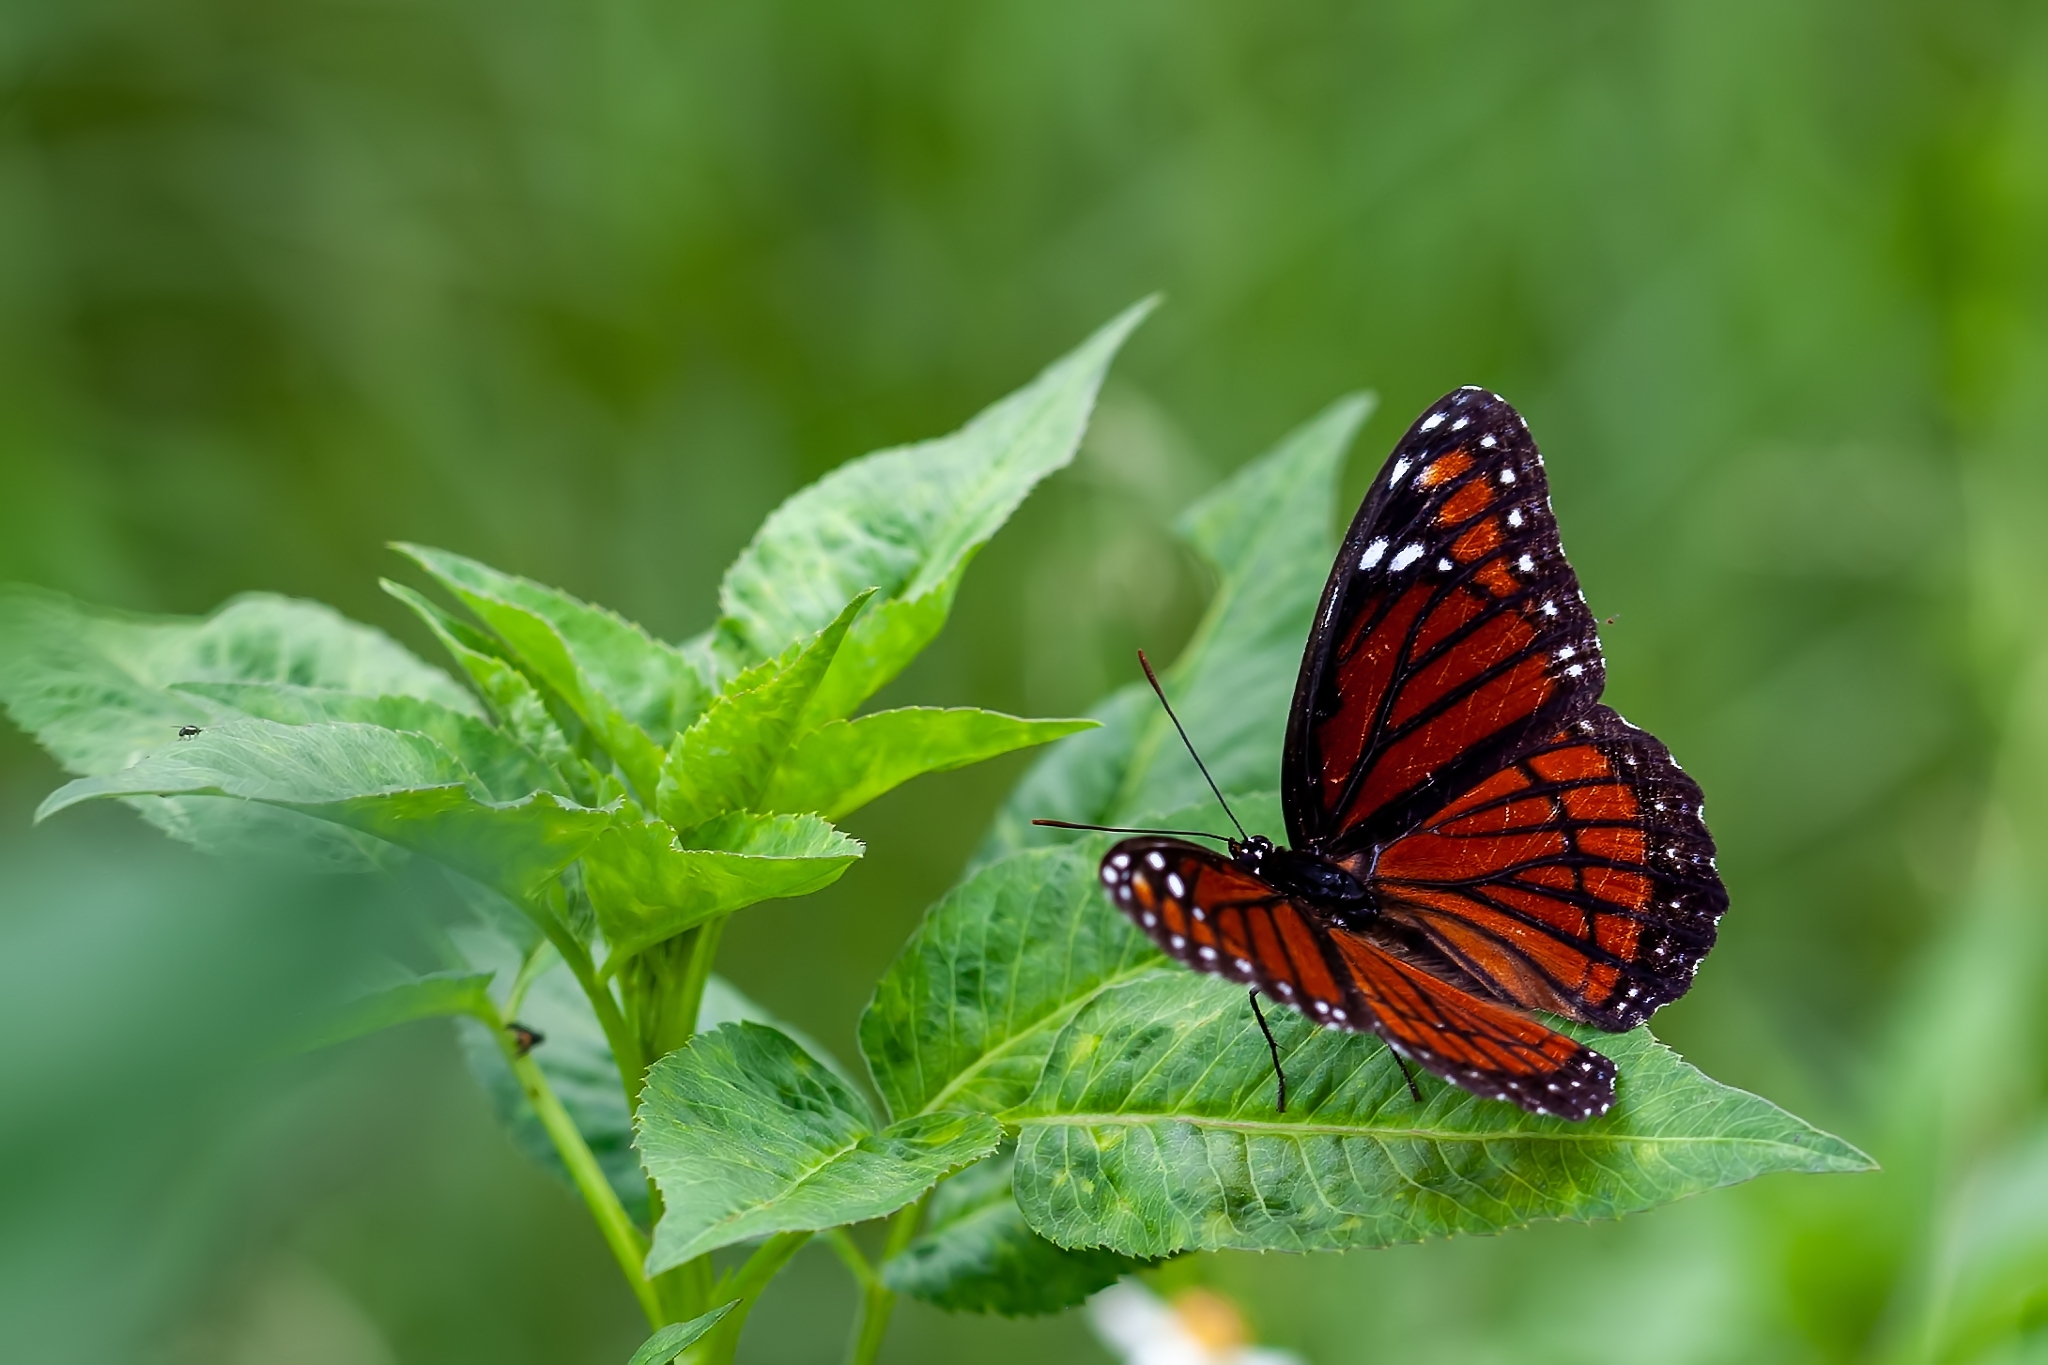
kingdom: Animalia
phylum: Arthropoda
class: Insecta
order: Lepidoptera
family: Nymphalidae
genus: Limenitis
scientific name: Limenitis archippus
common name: Viceroy
